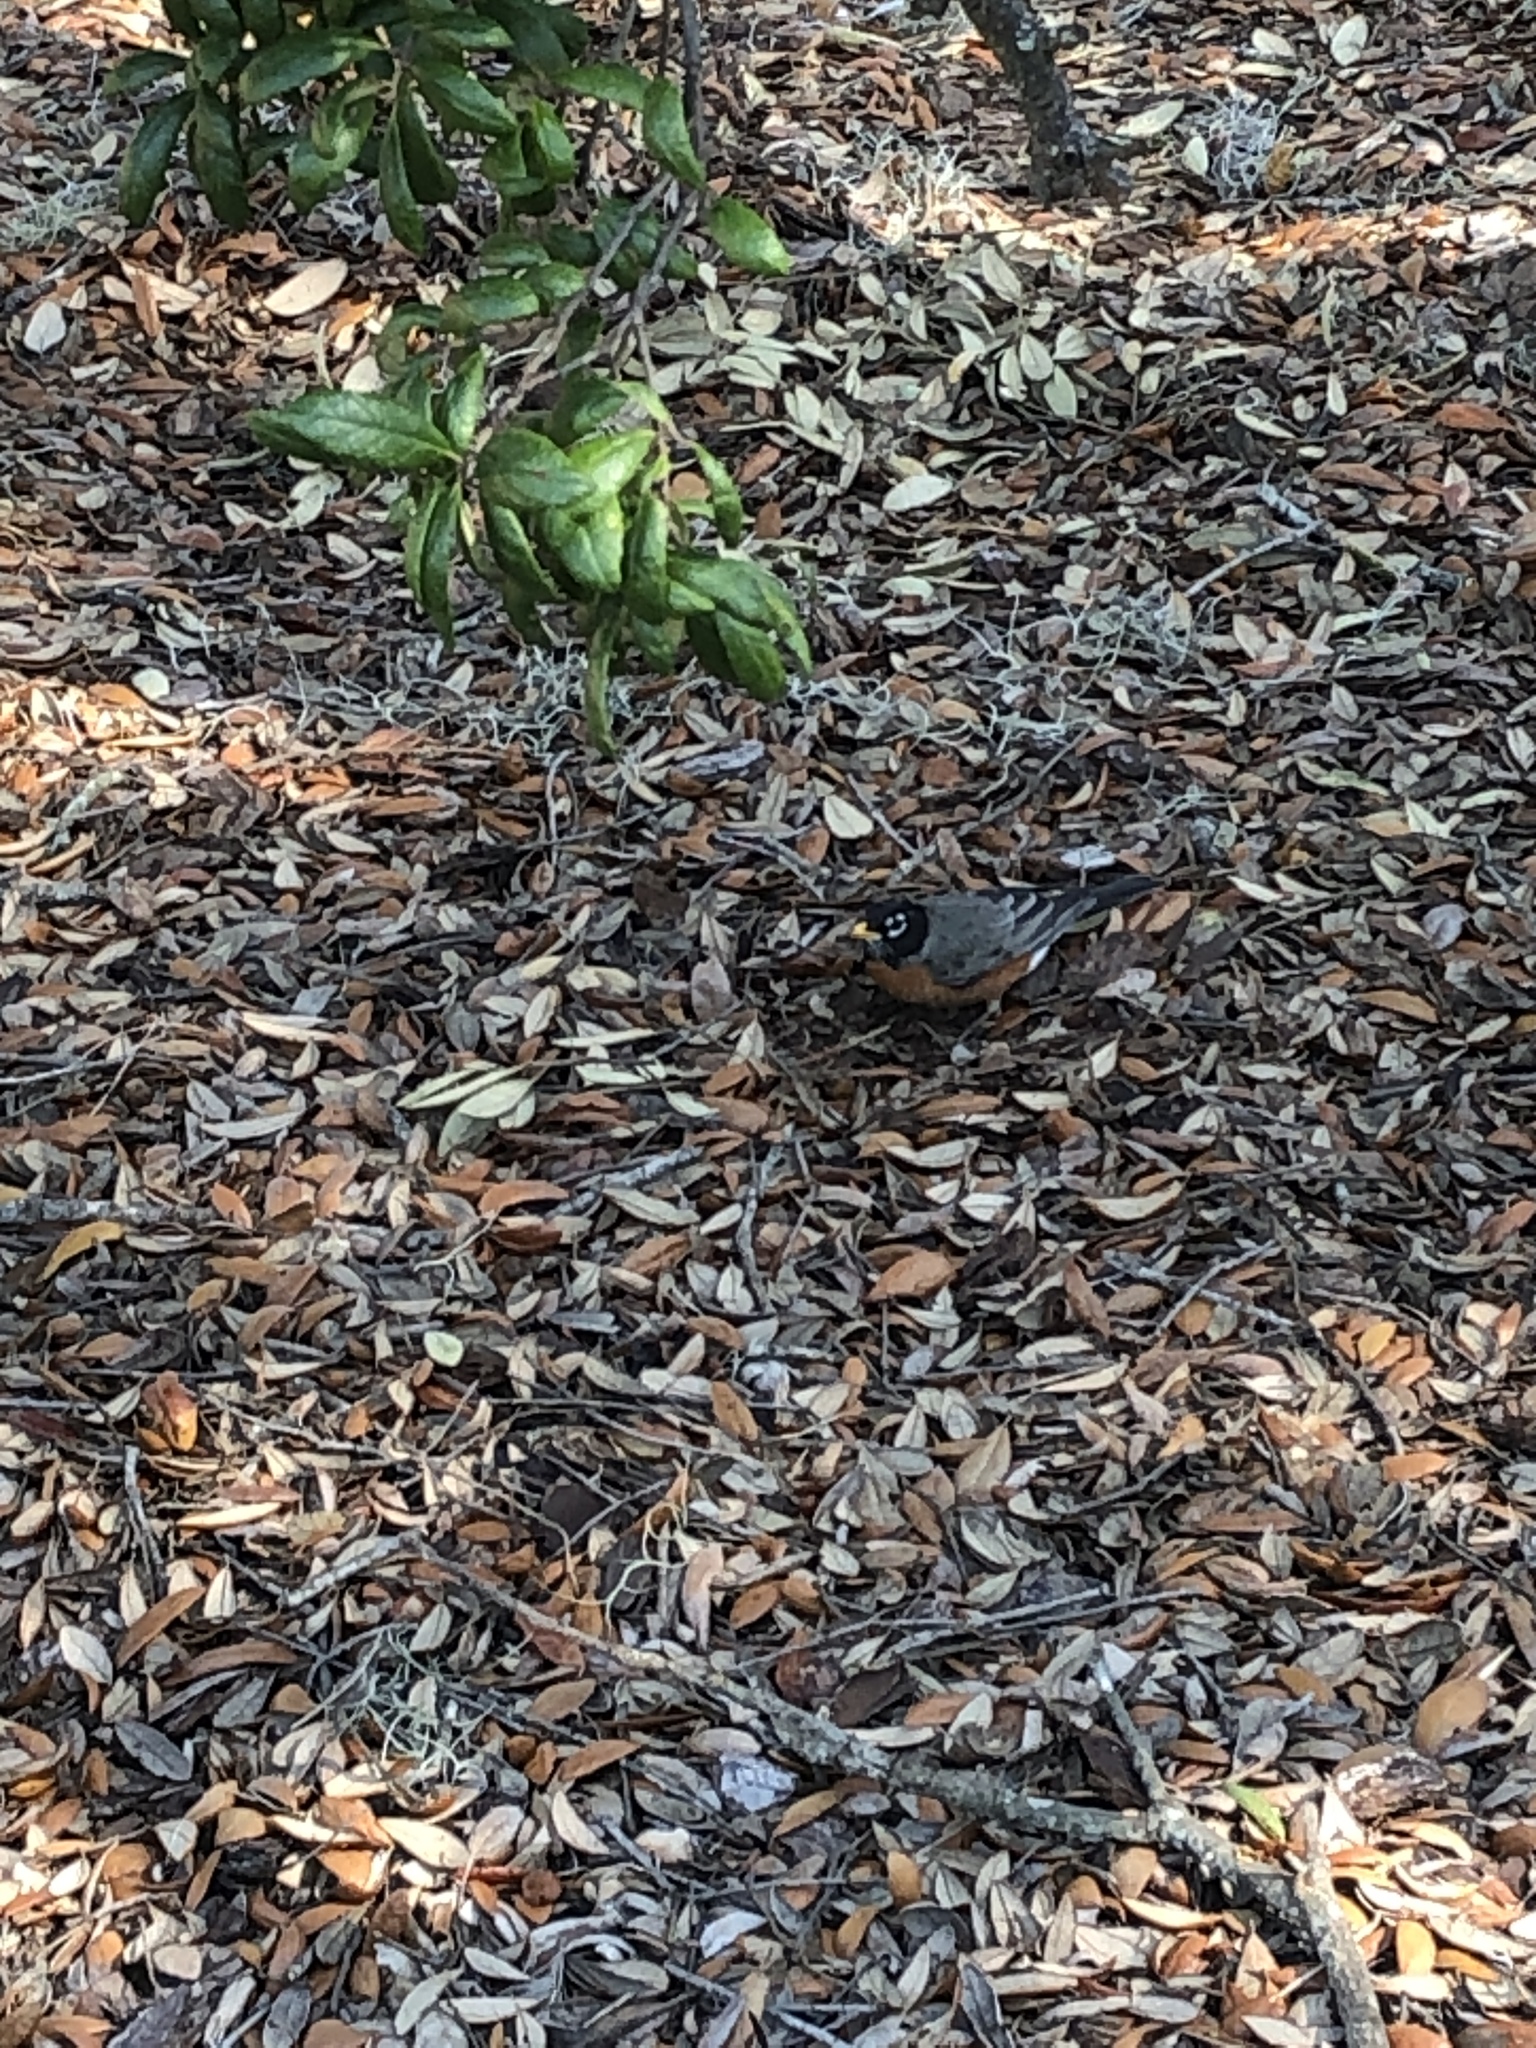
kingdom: Animalia
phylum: Chordata
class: Aves
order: Passeriformes
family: Turdidae
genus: Turdus
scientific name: Turdus migratorius
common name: American robin
